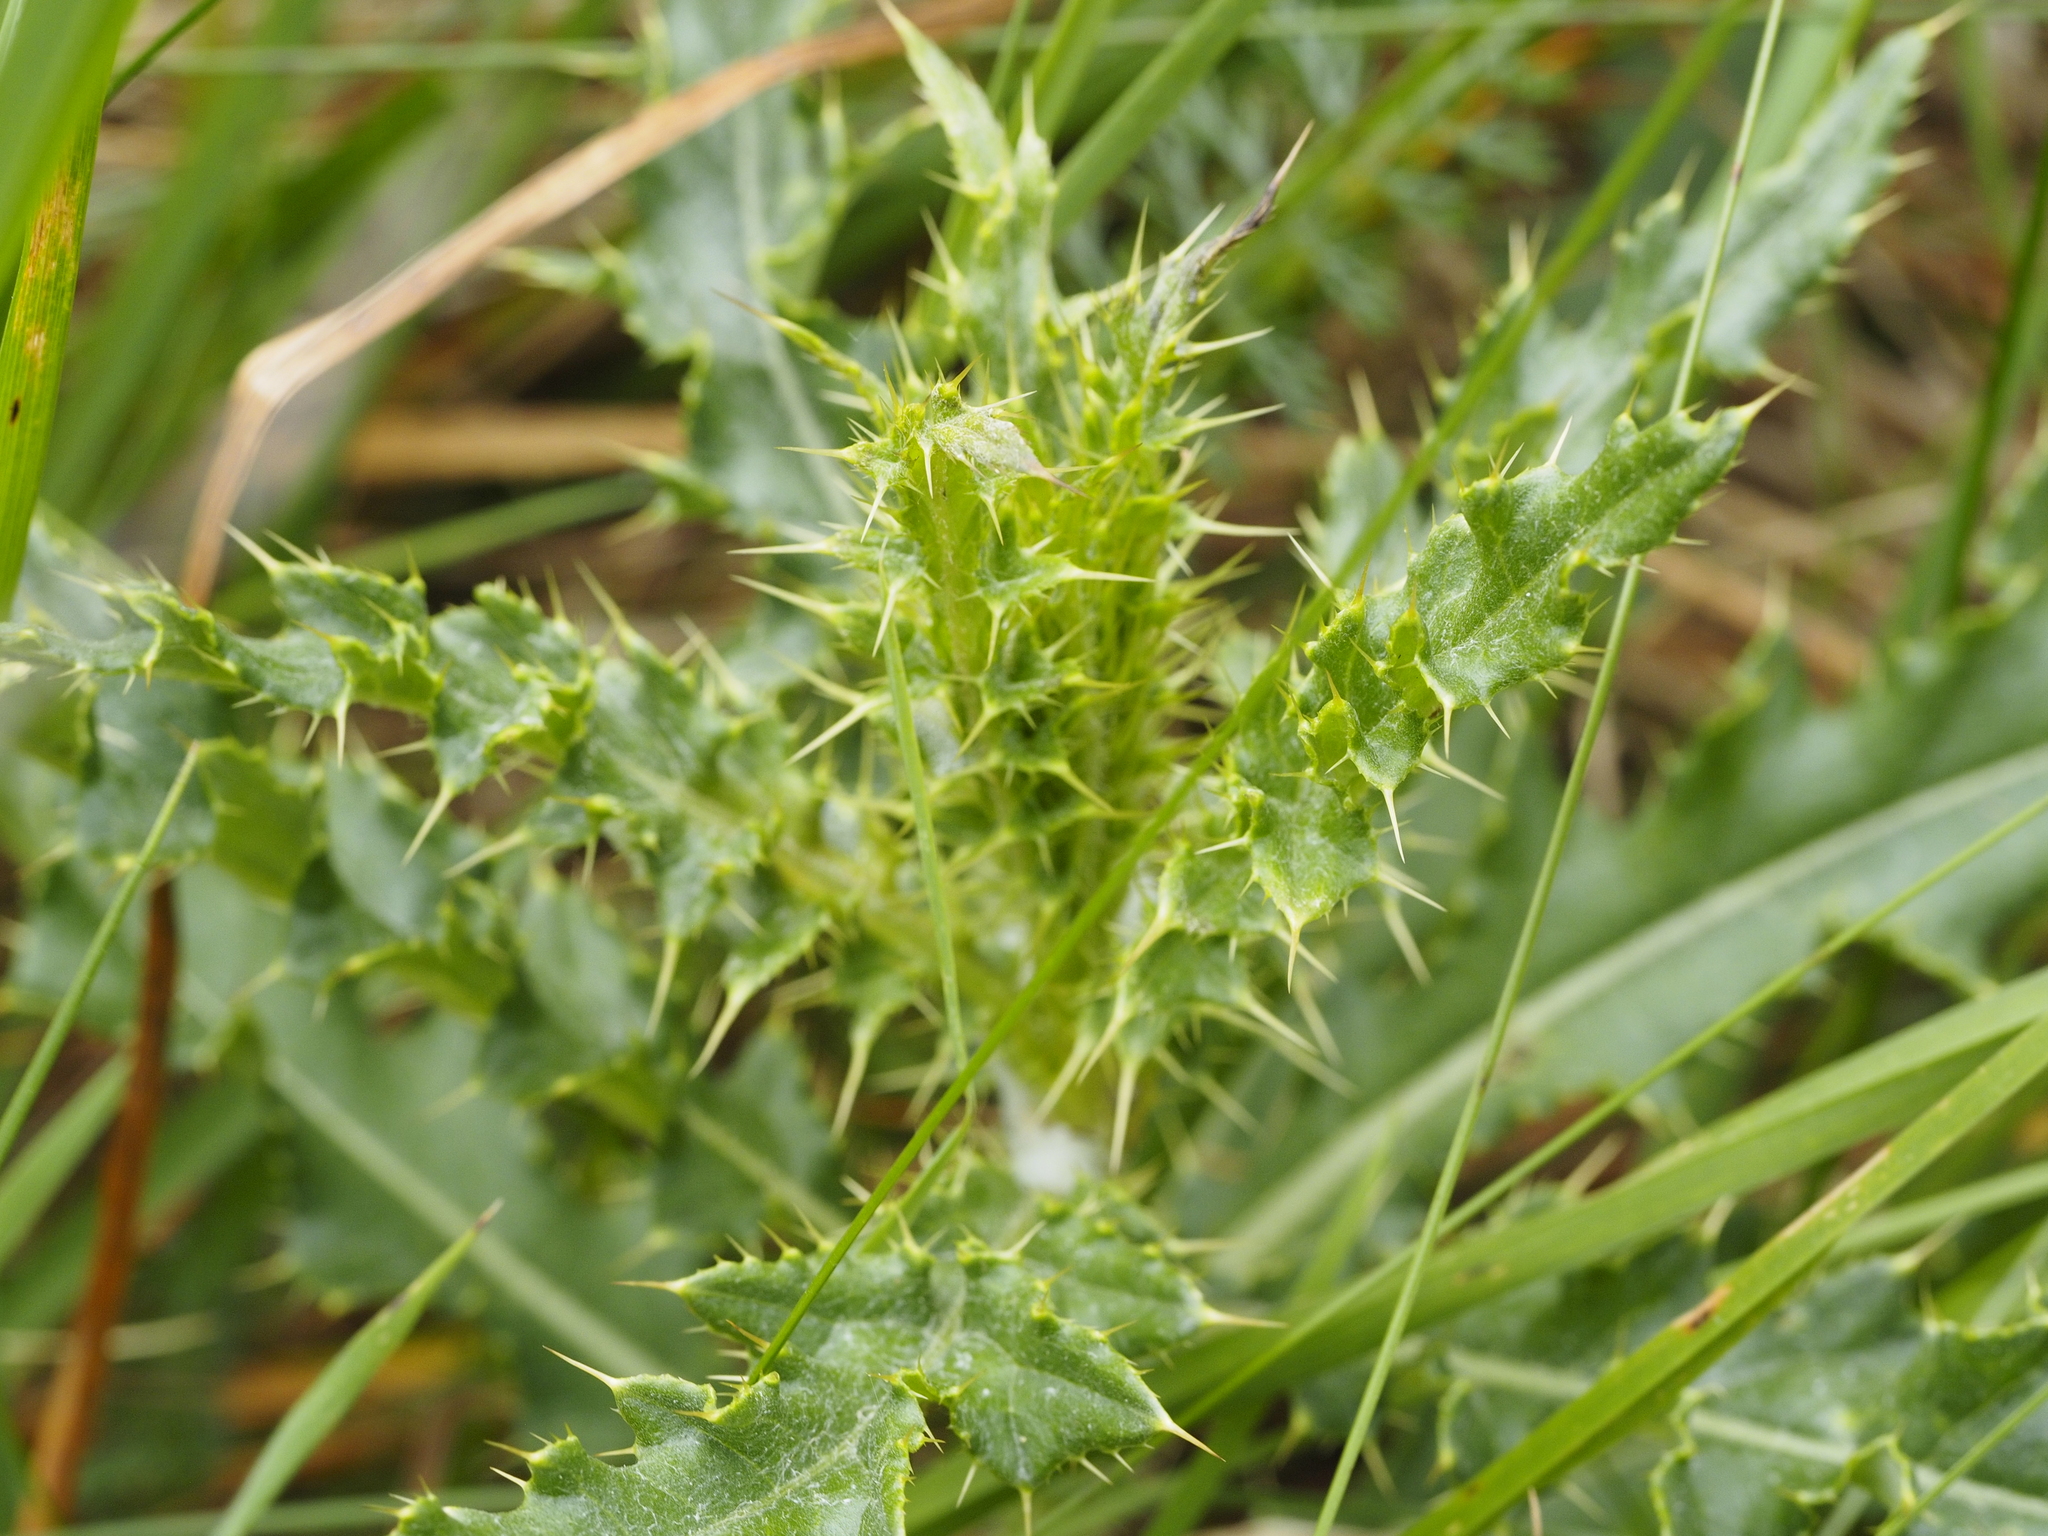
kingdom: Plantae
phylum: Tracheophyta
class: Magnoliopsida
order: Asterales
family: Asteraceae
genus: Cirsium
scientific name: Cirsium arvense
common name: Creeping thistle
